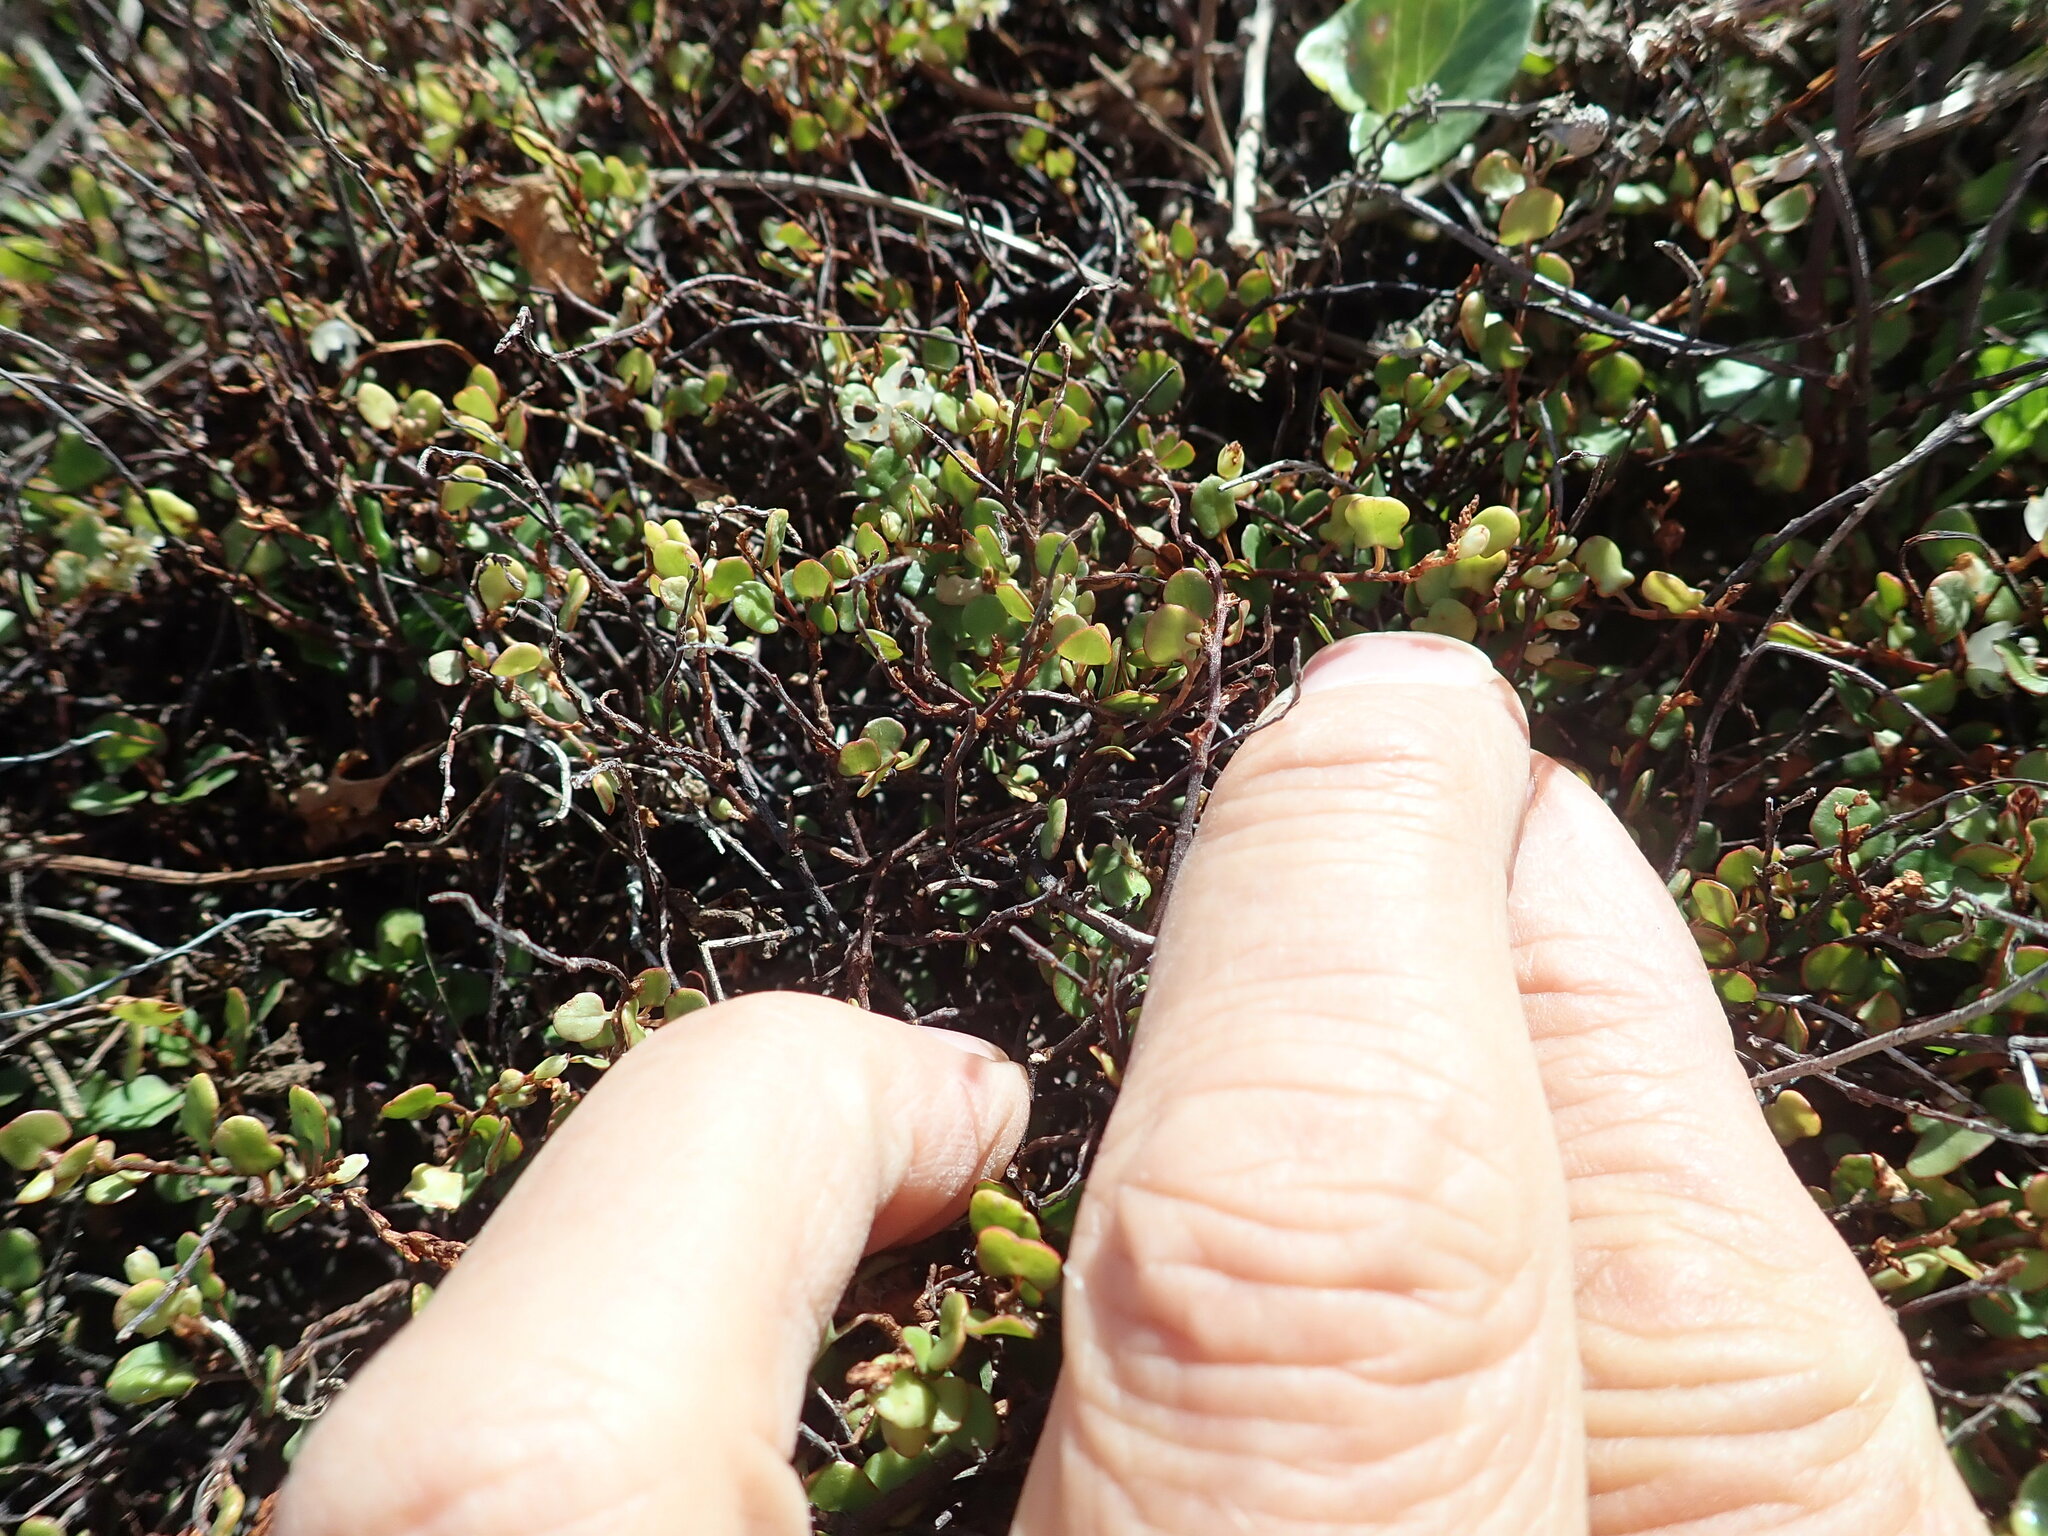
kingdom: Plantae
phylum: Tracheophyta
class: Magnoliopsida
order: Caryophyllales
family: Polygonaceae
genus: Muehlenbeckia
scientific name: Muehlenbeckia complexa
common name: Wireplant
